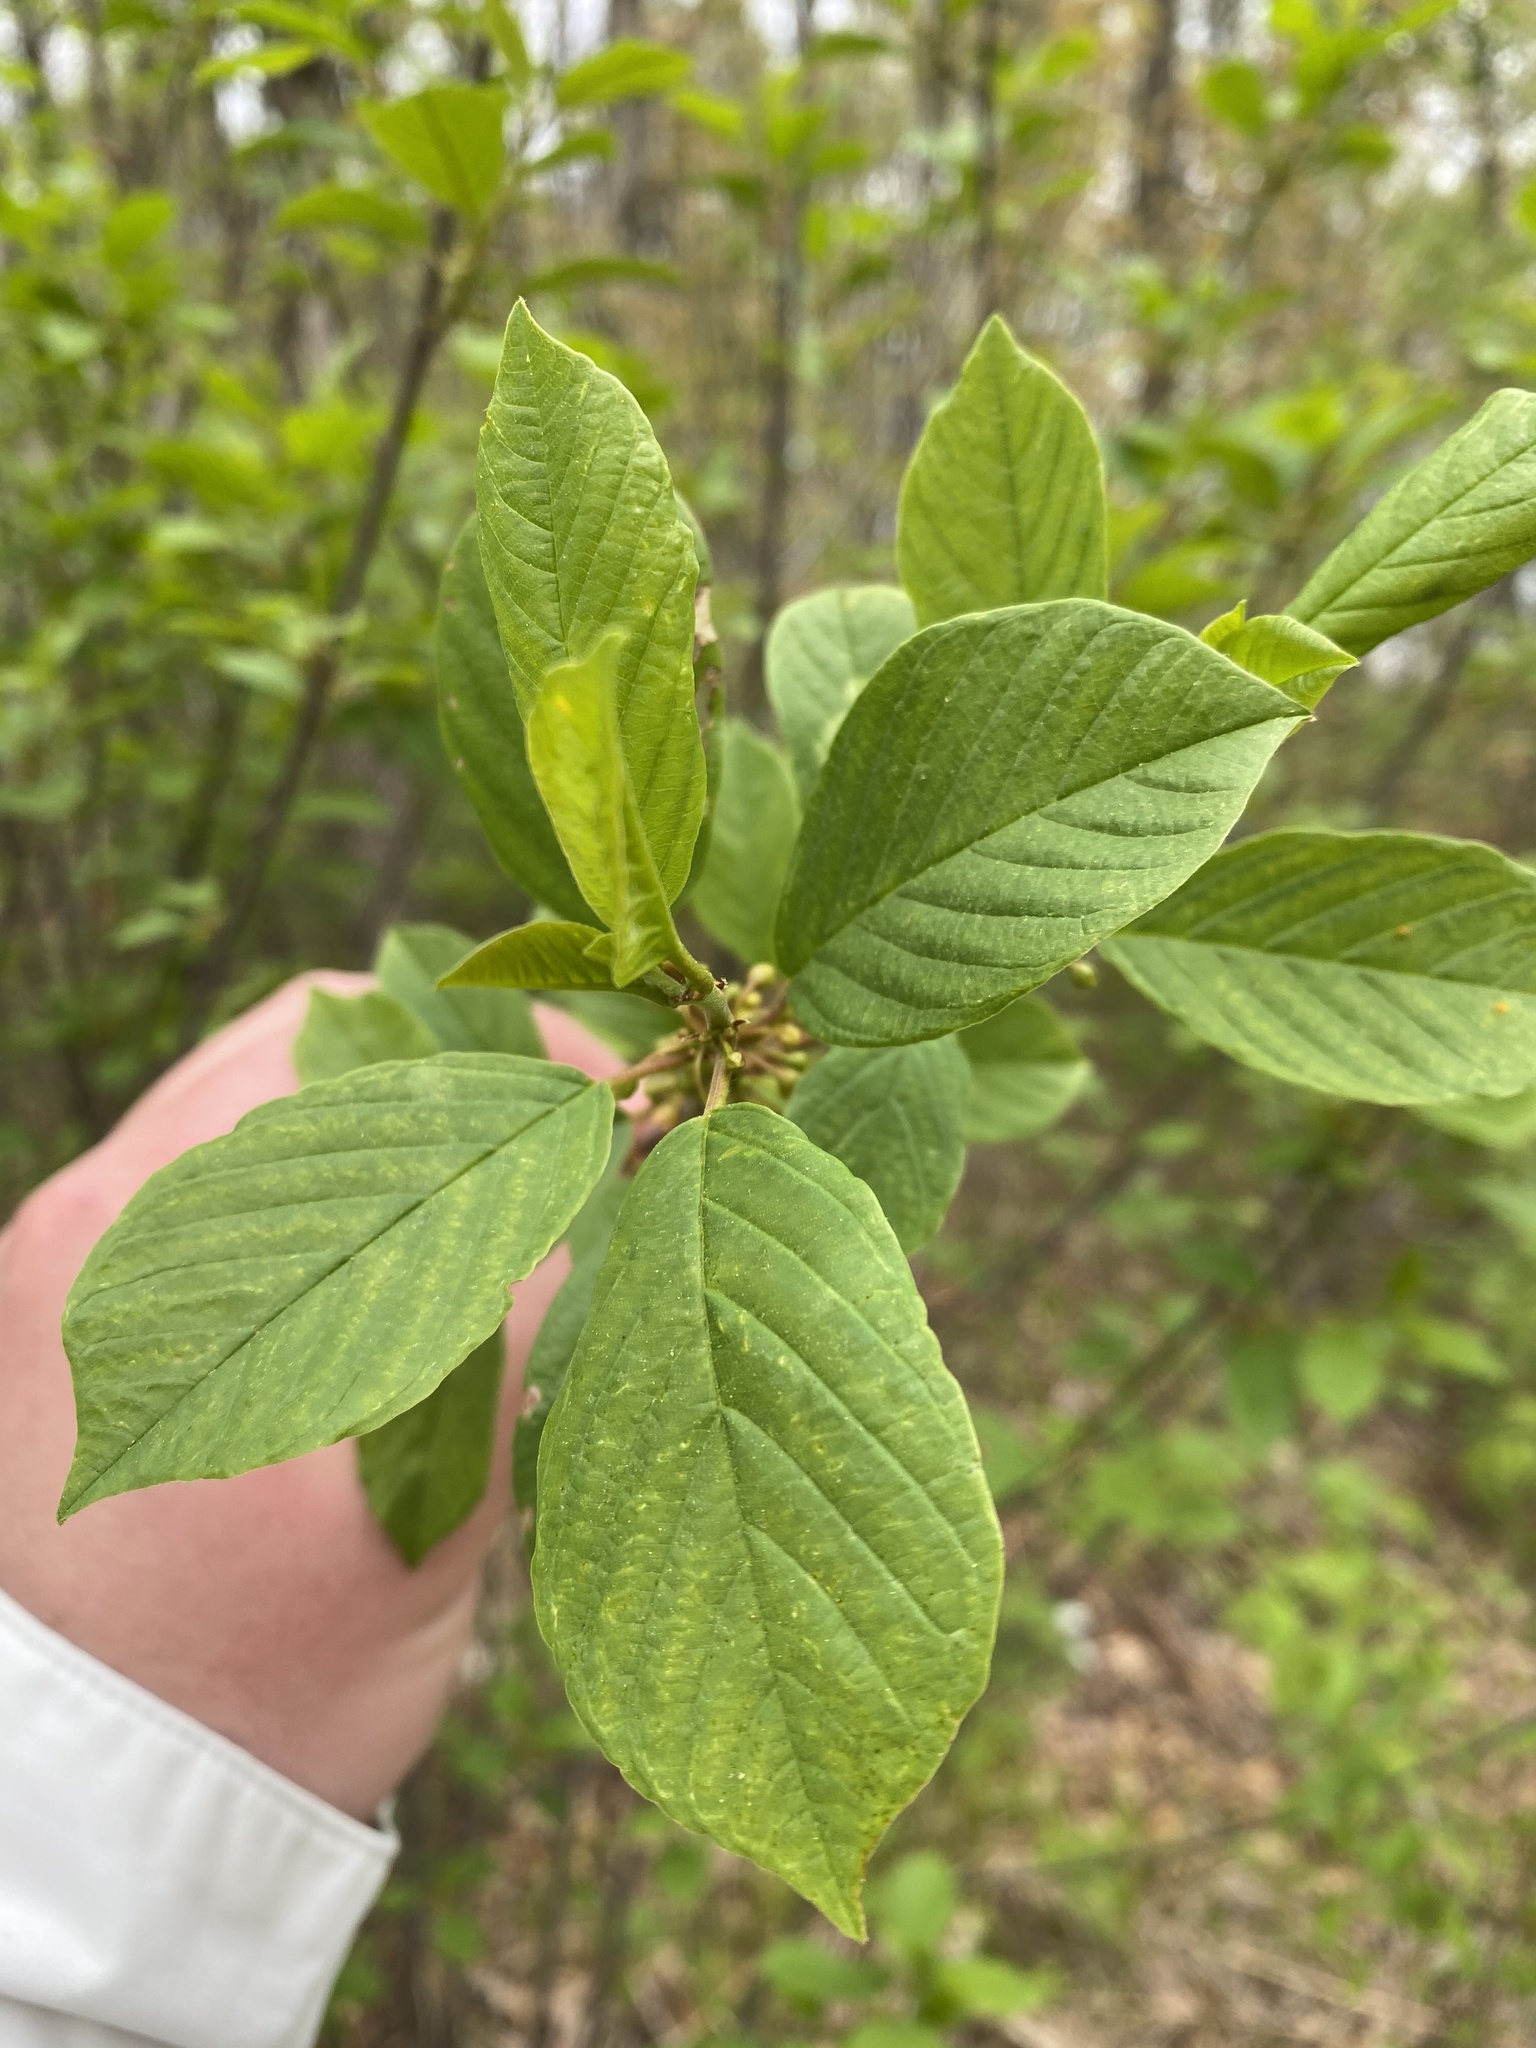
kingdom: Plantae
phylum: Tracheophyta
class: Magnoliopsida
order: Rosales
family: Rhamnaceae
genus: Frangula
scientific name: Frangula alnus
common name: Alder buckthorn
